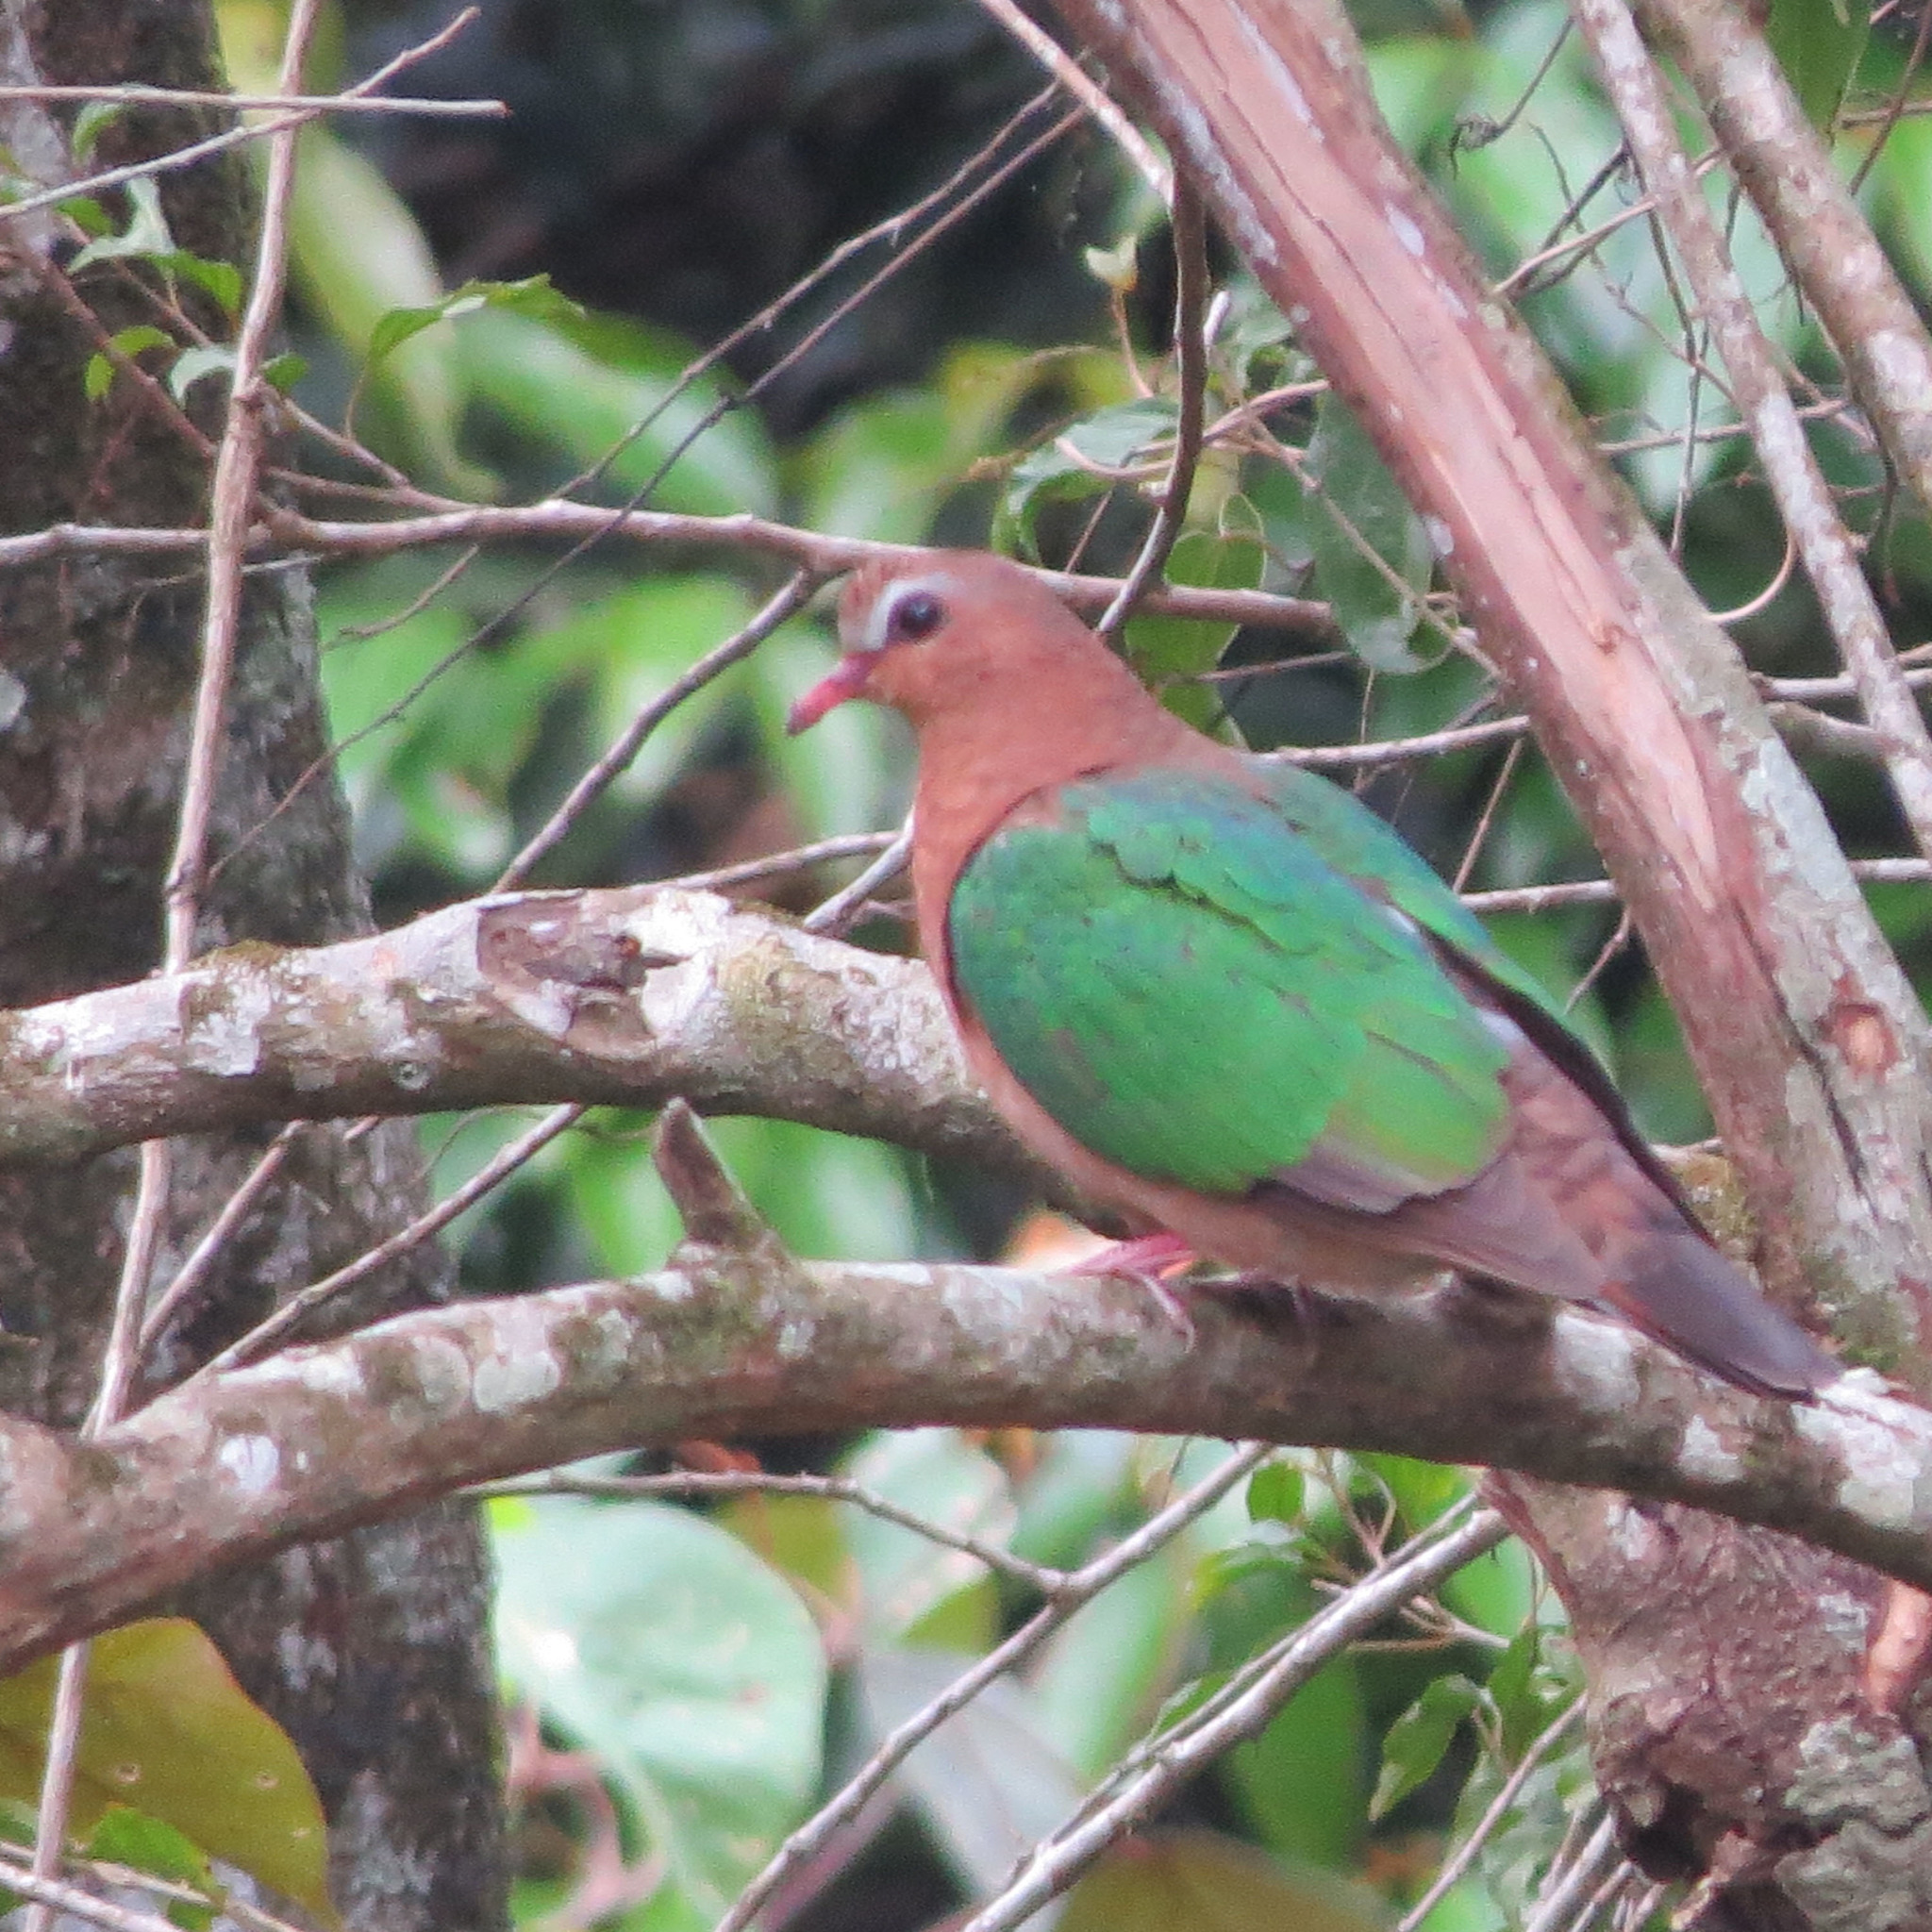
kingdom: Animalia
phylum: Chordata
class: Aves
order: Columbiformes
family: Columbidae
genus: Chalcophaps
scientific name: Chalcophaps indica
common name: Common emerald dove
